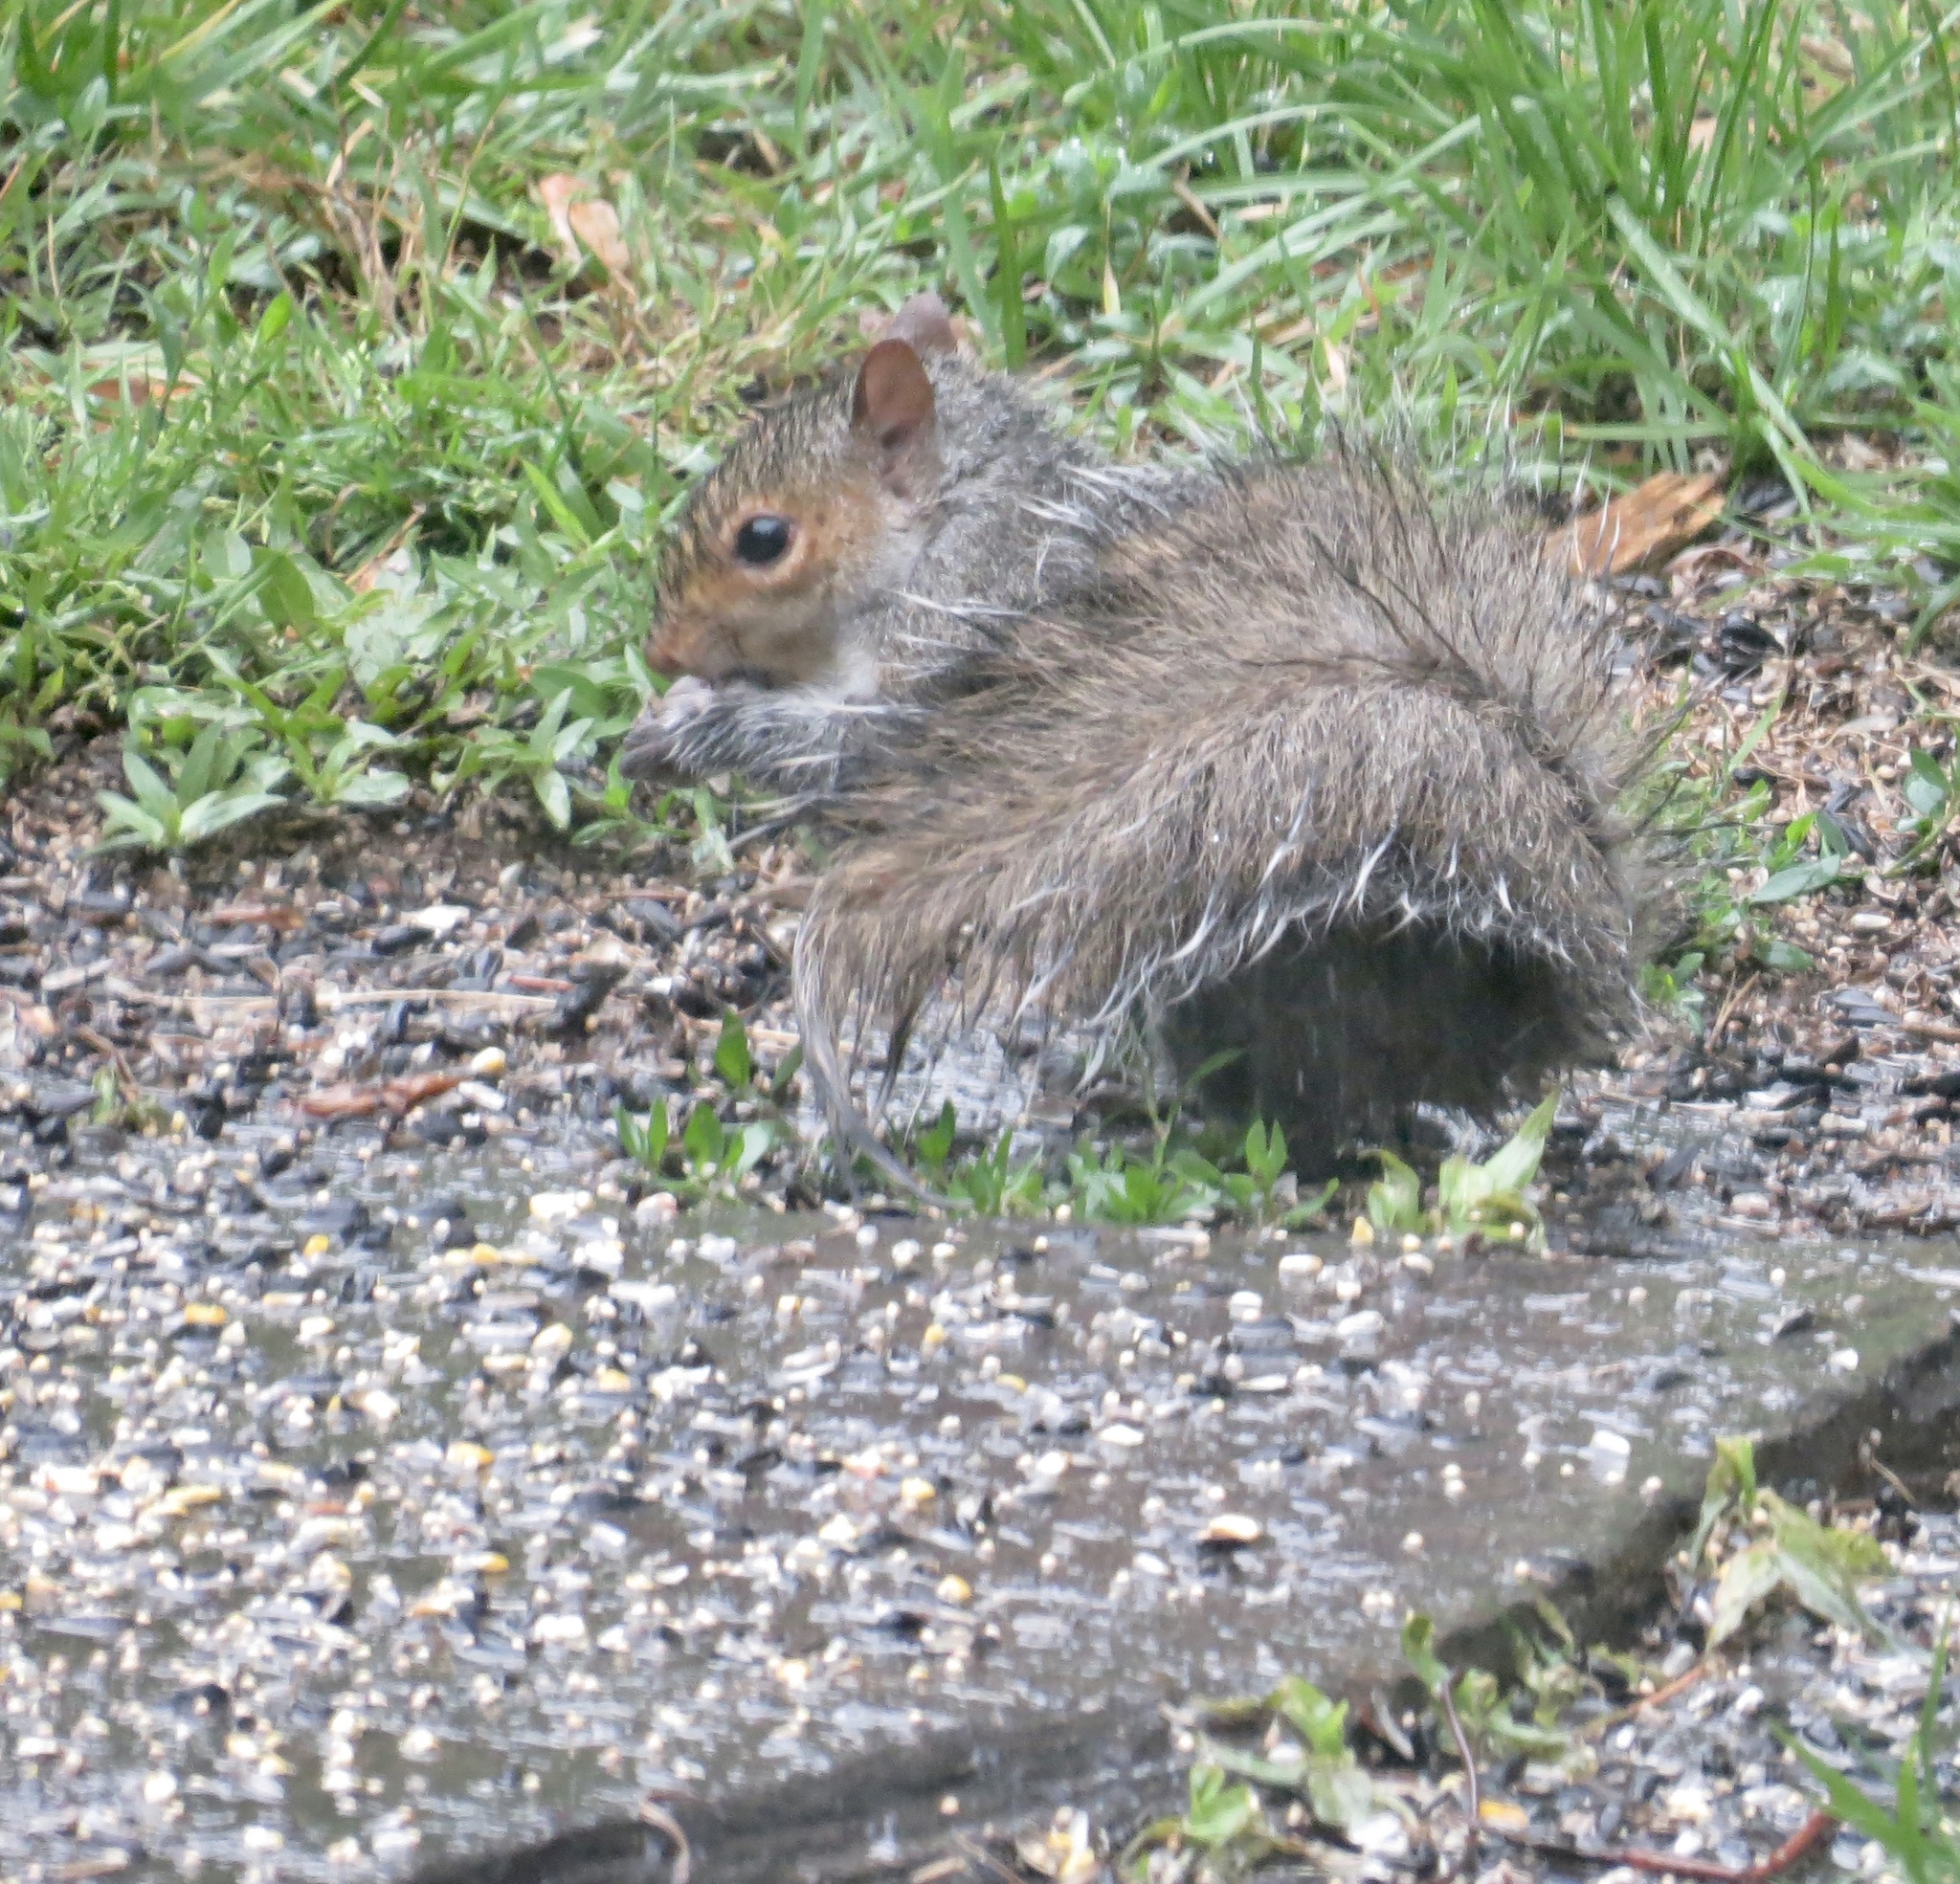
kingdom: Animalia
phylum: Chordata
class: Mammalia
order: Rodentia
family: Sciuridae
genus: Sciurus
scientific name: Sciurus carolinensis
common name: Eastern gray squirrel
